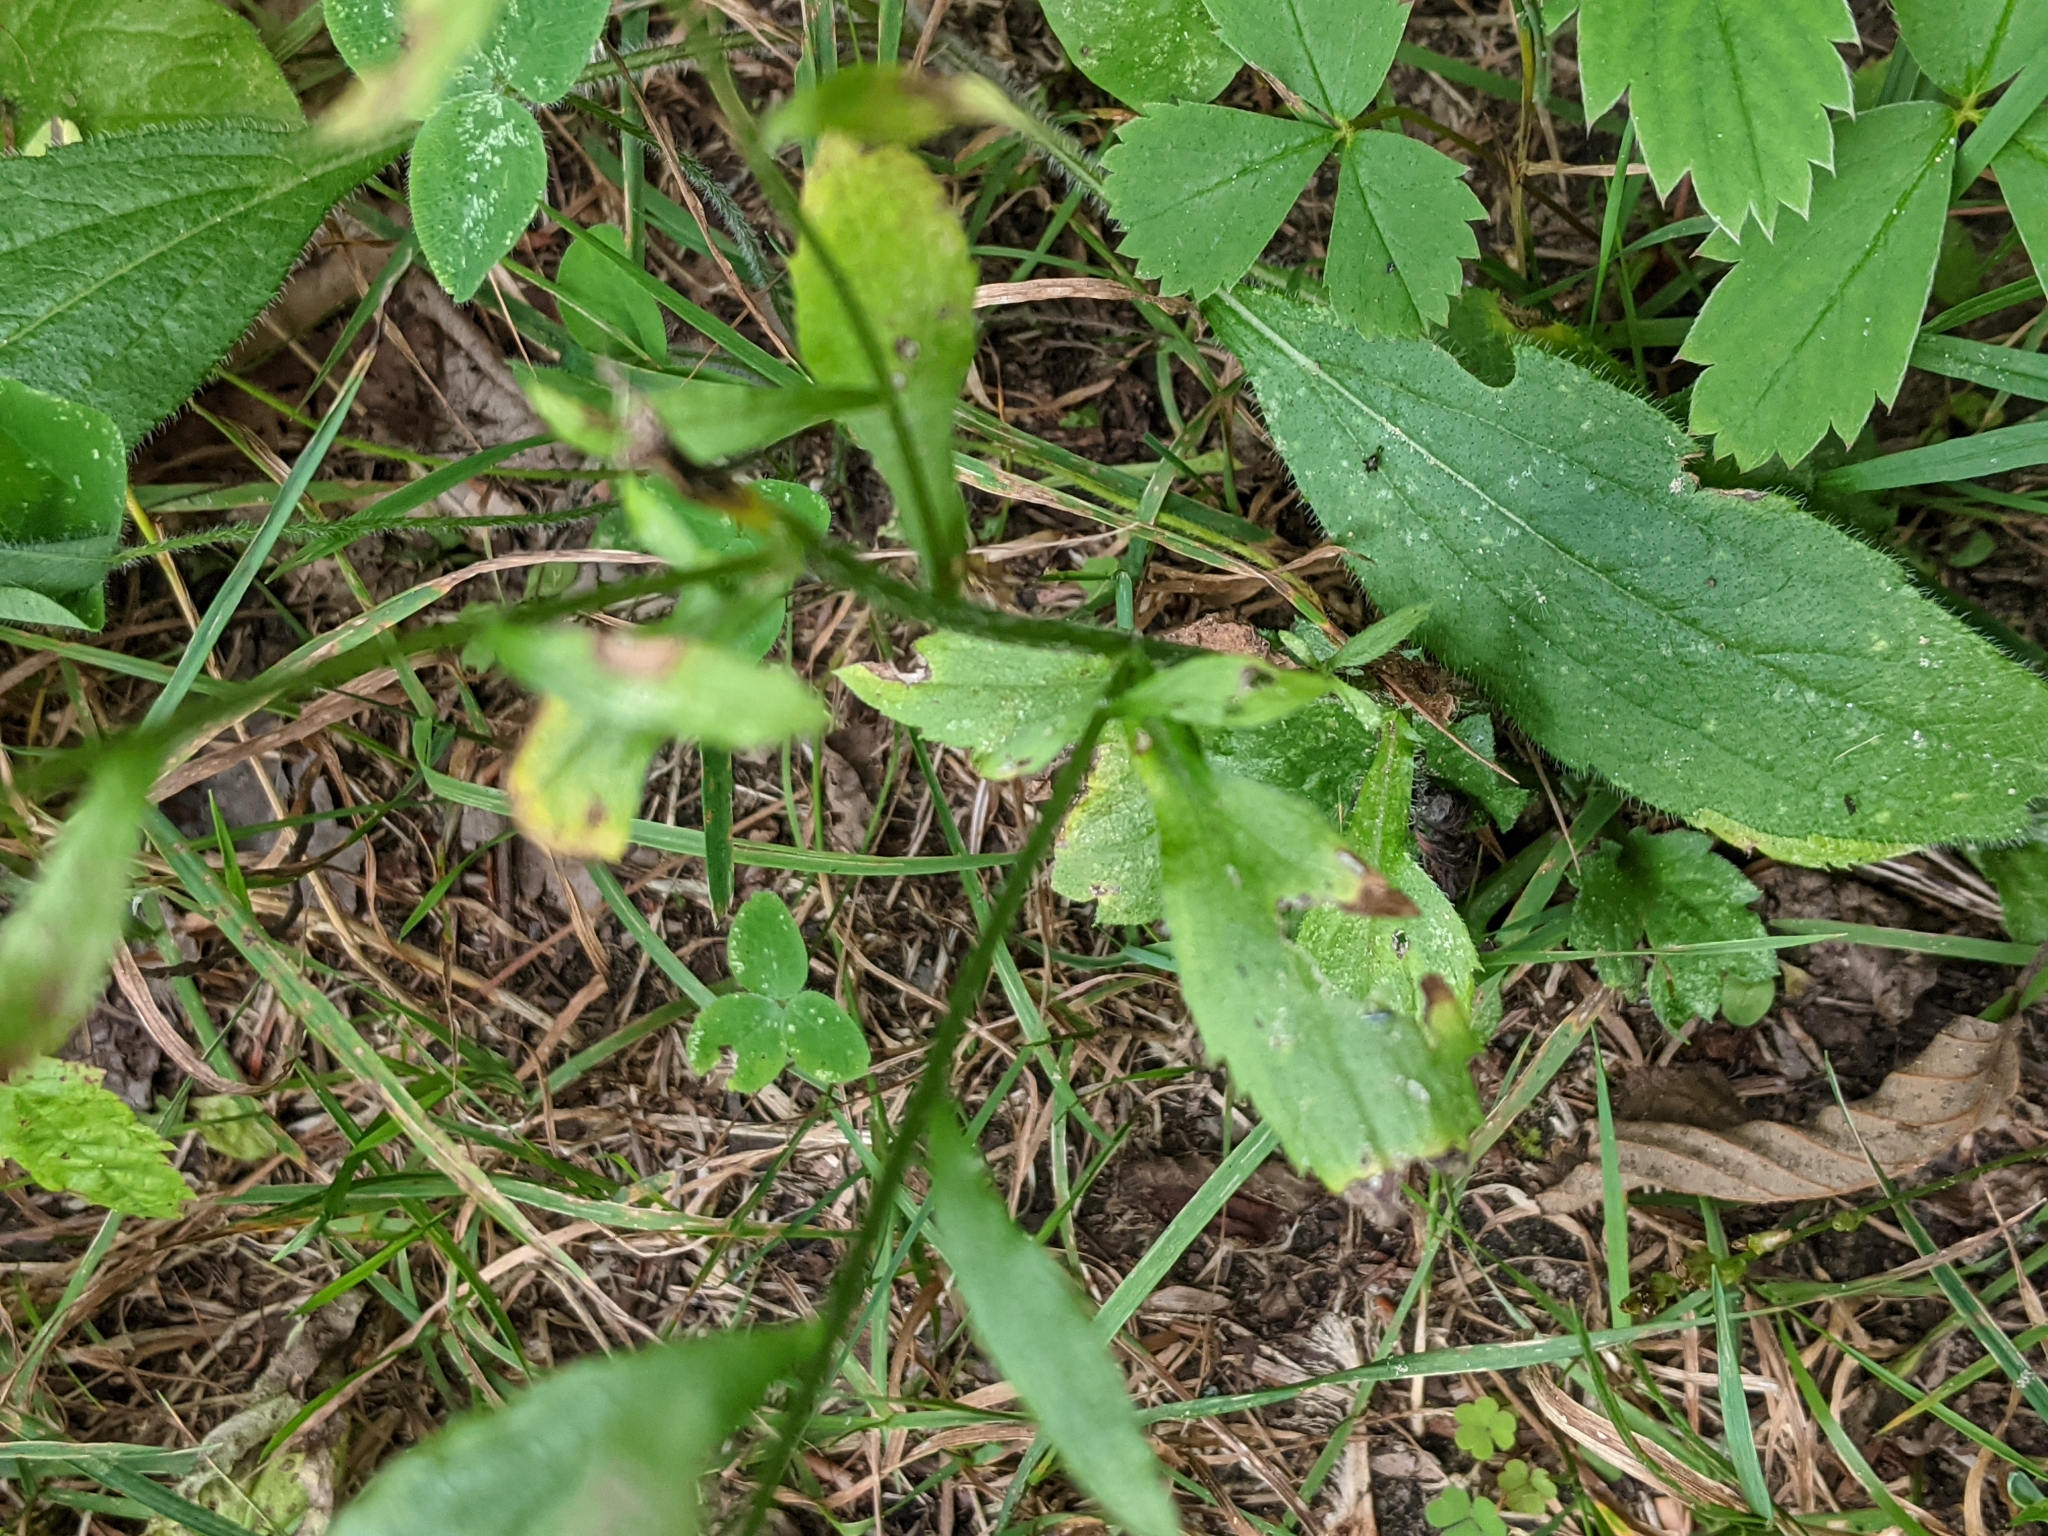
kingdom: Plantae
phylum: Tracheophyta
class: Magnoliopsida
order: Asterales
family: Asteraceae
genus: Erigeron
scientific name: Erigeron strigosus
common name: Common eastern fleabane
